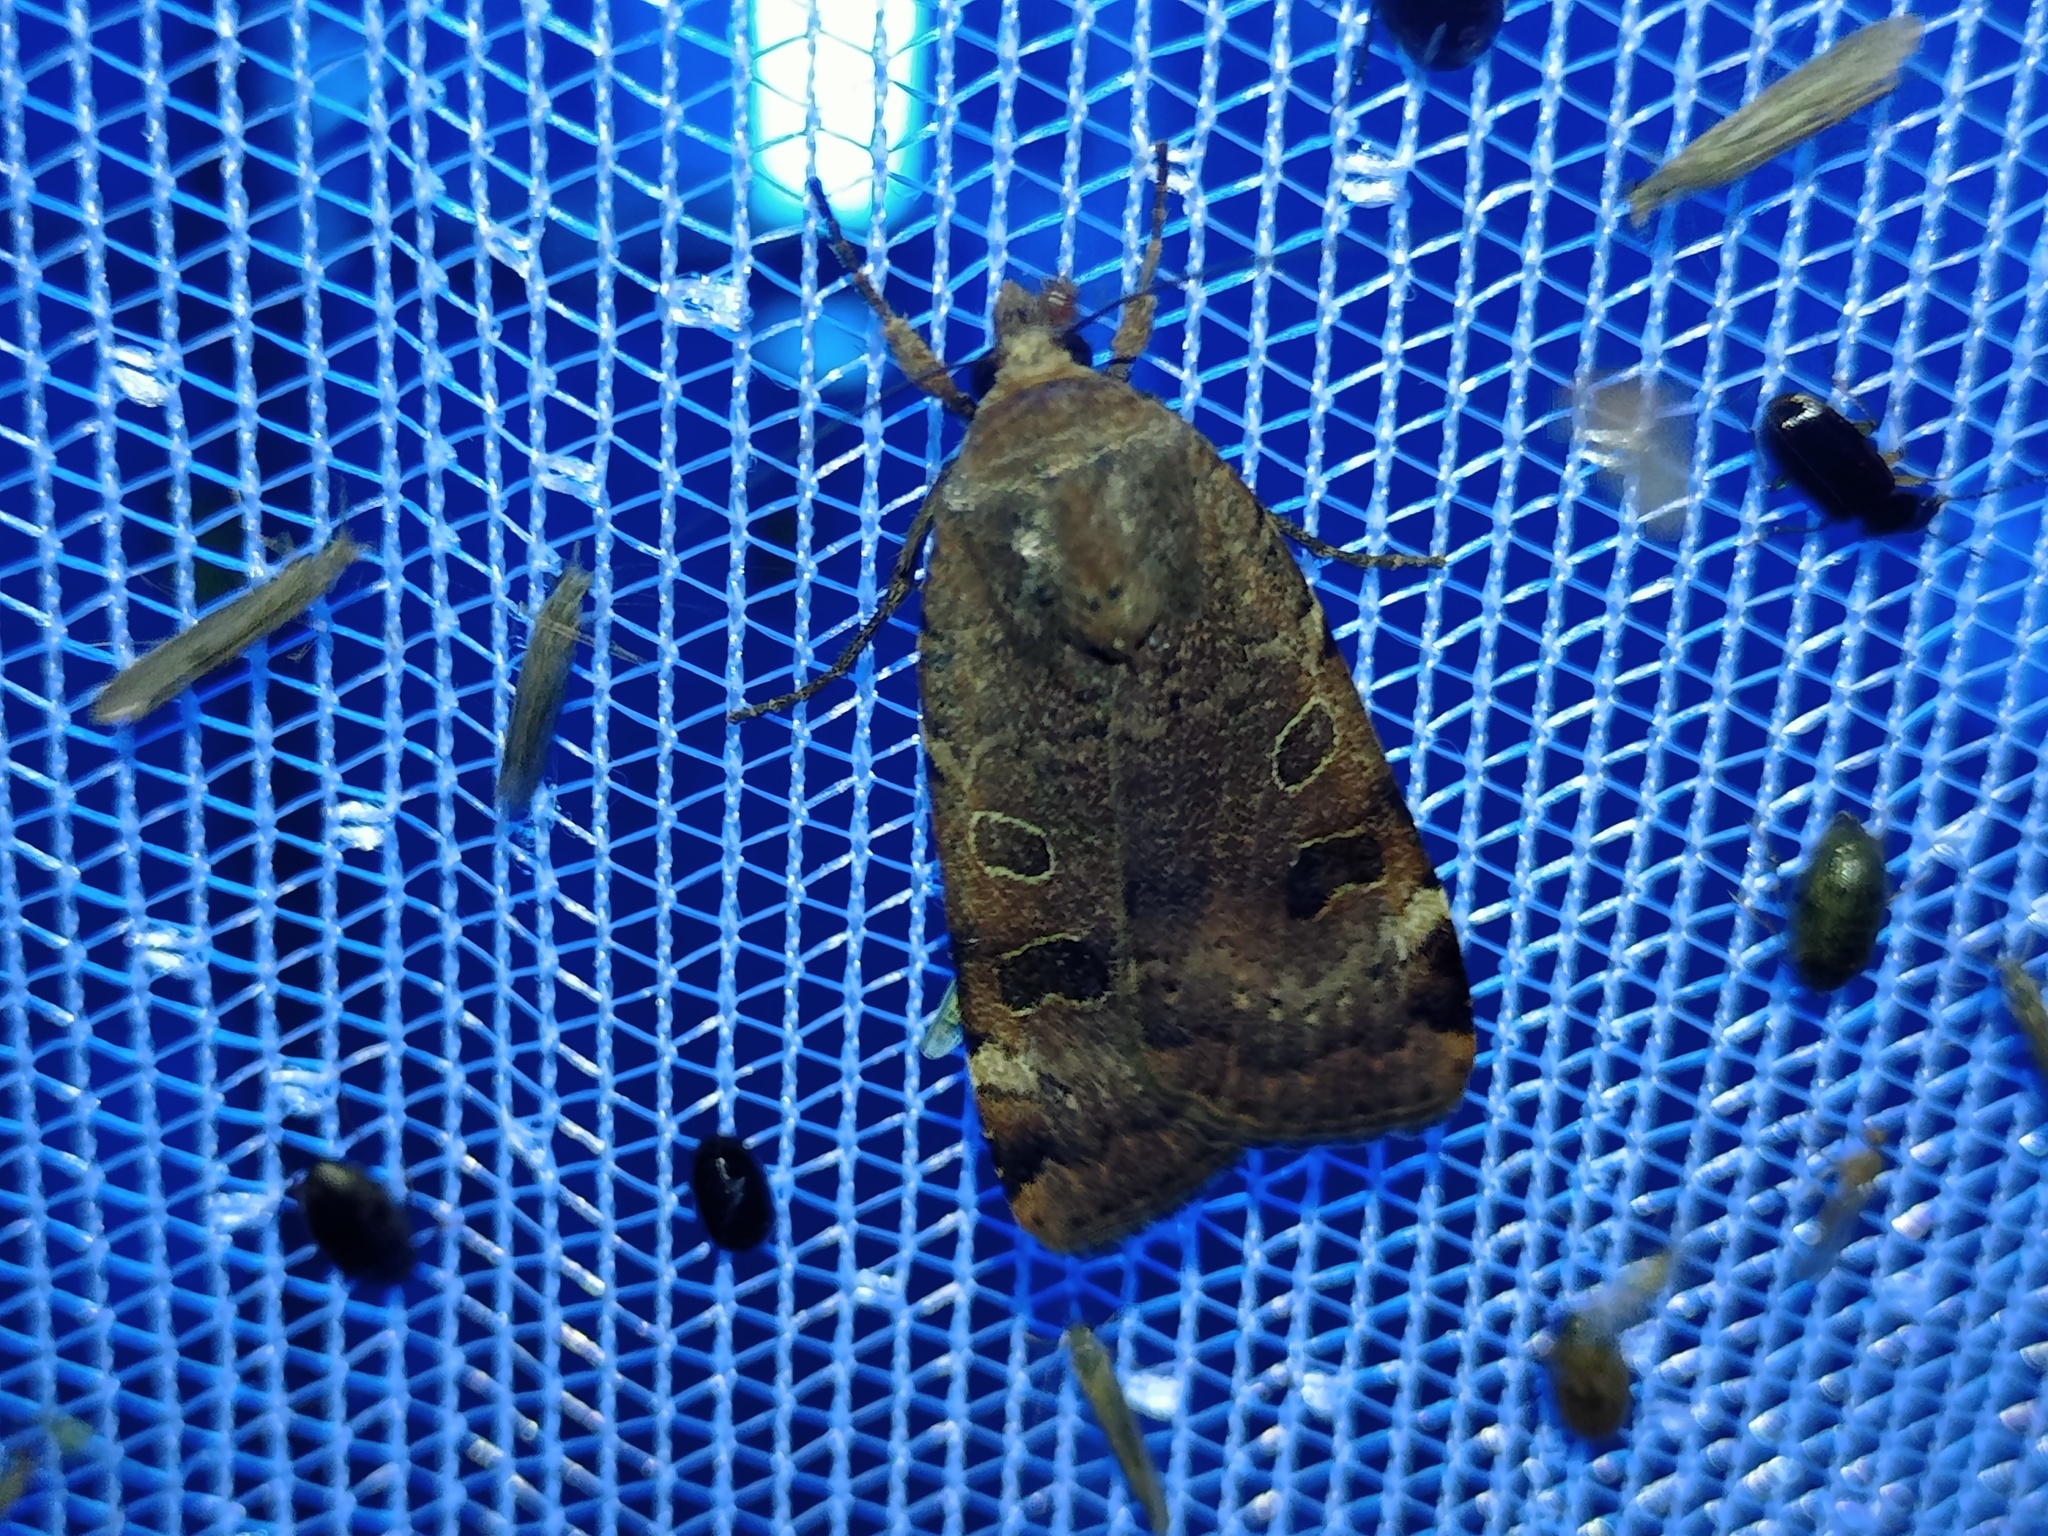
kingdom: Animalia
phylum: Arthropoda
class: Insecta
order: Lepidoptera
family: Noctuidae
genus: Noctua
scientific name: Noctua interposita
